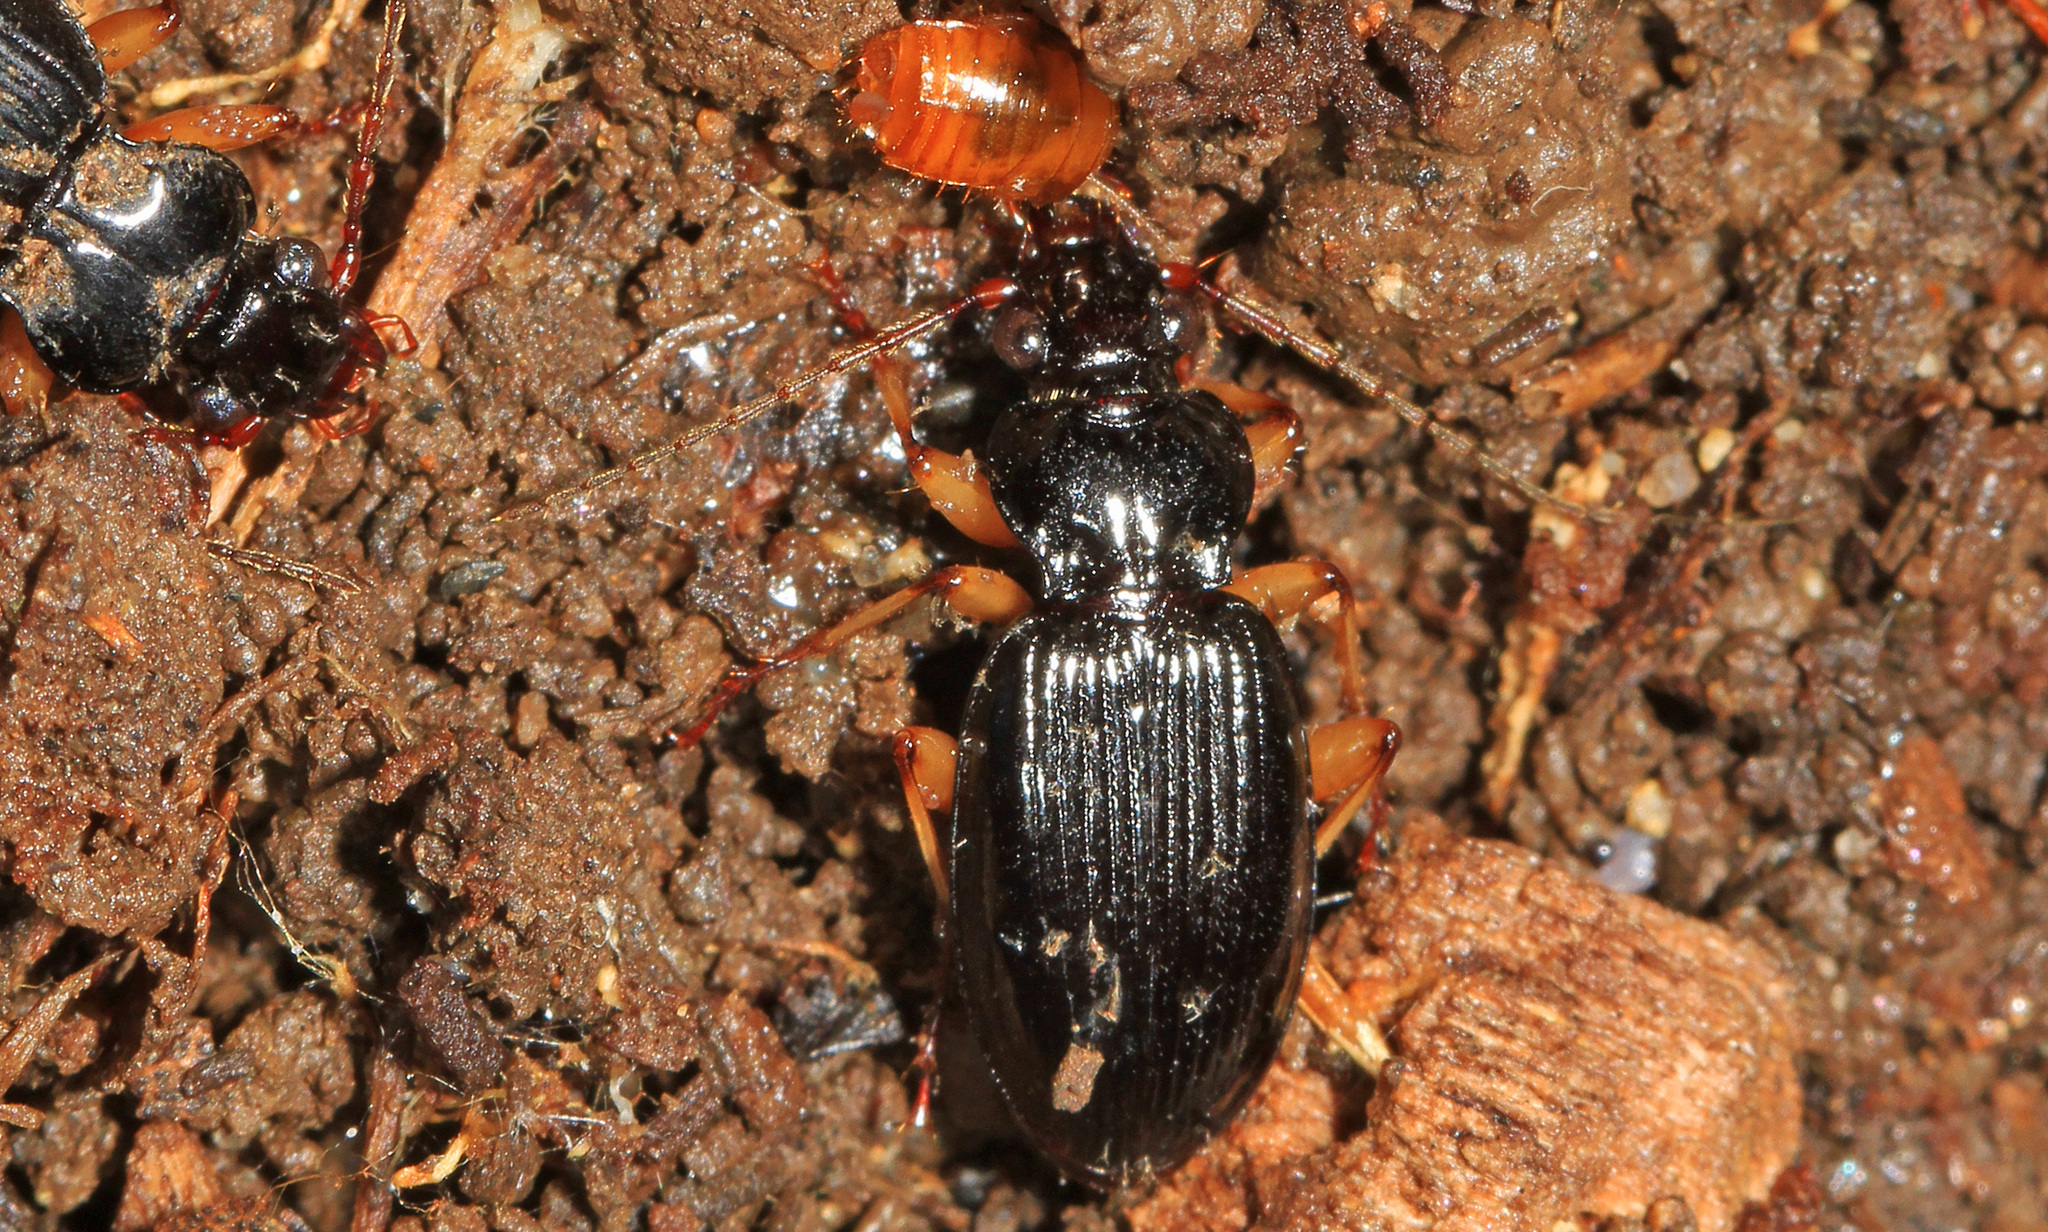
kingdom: Animalia
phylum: Arthropoda
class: Insecta
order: Coleoptera
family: Carabidae
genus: Patrobus
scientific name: Patrobus longicornis
